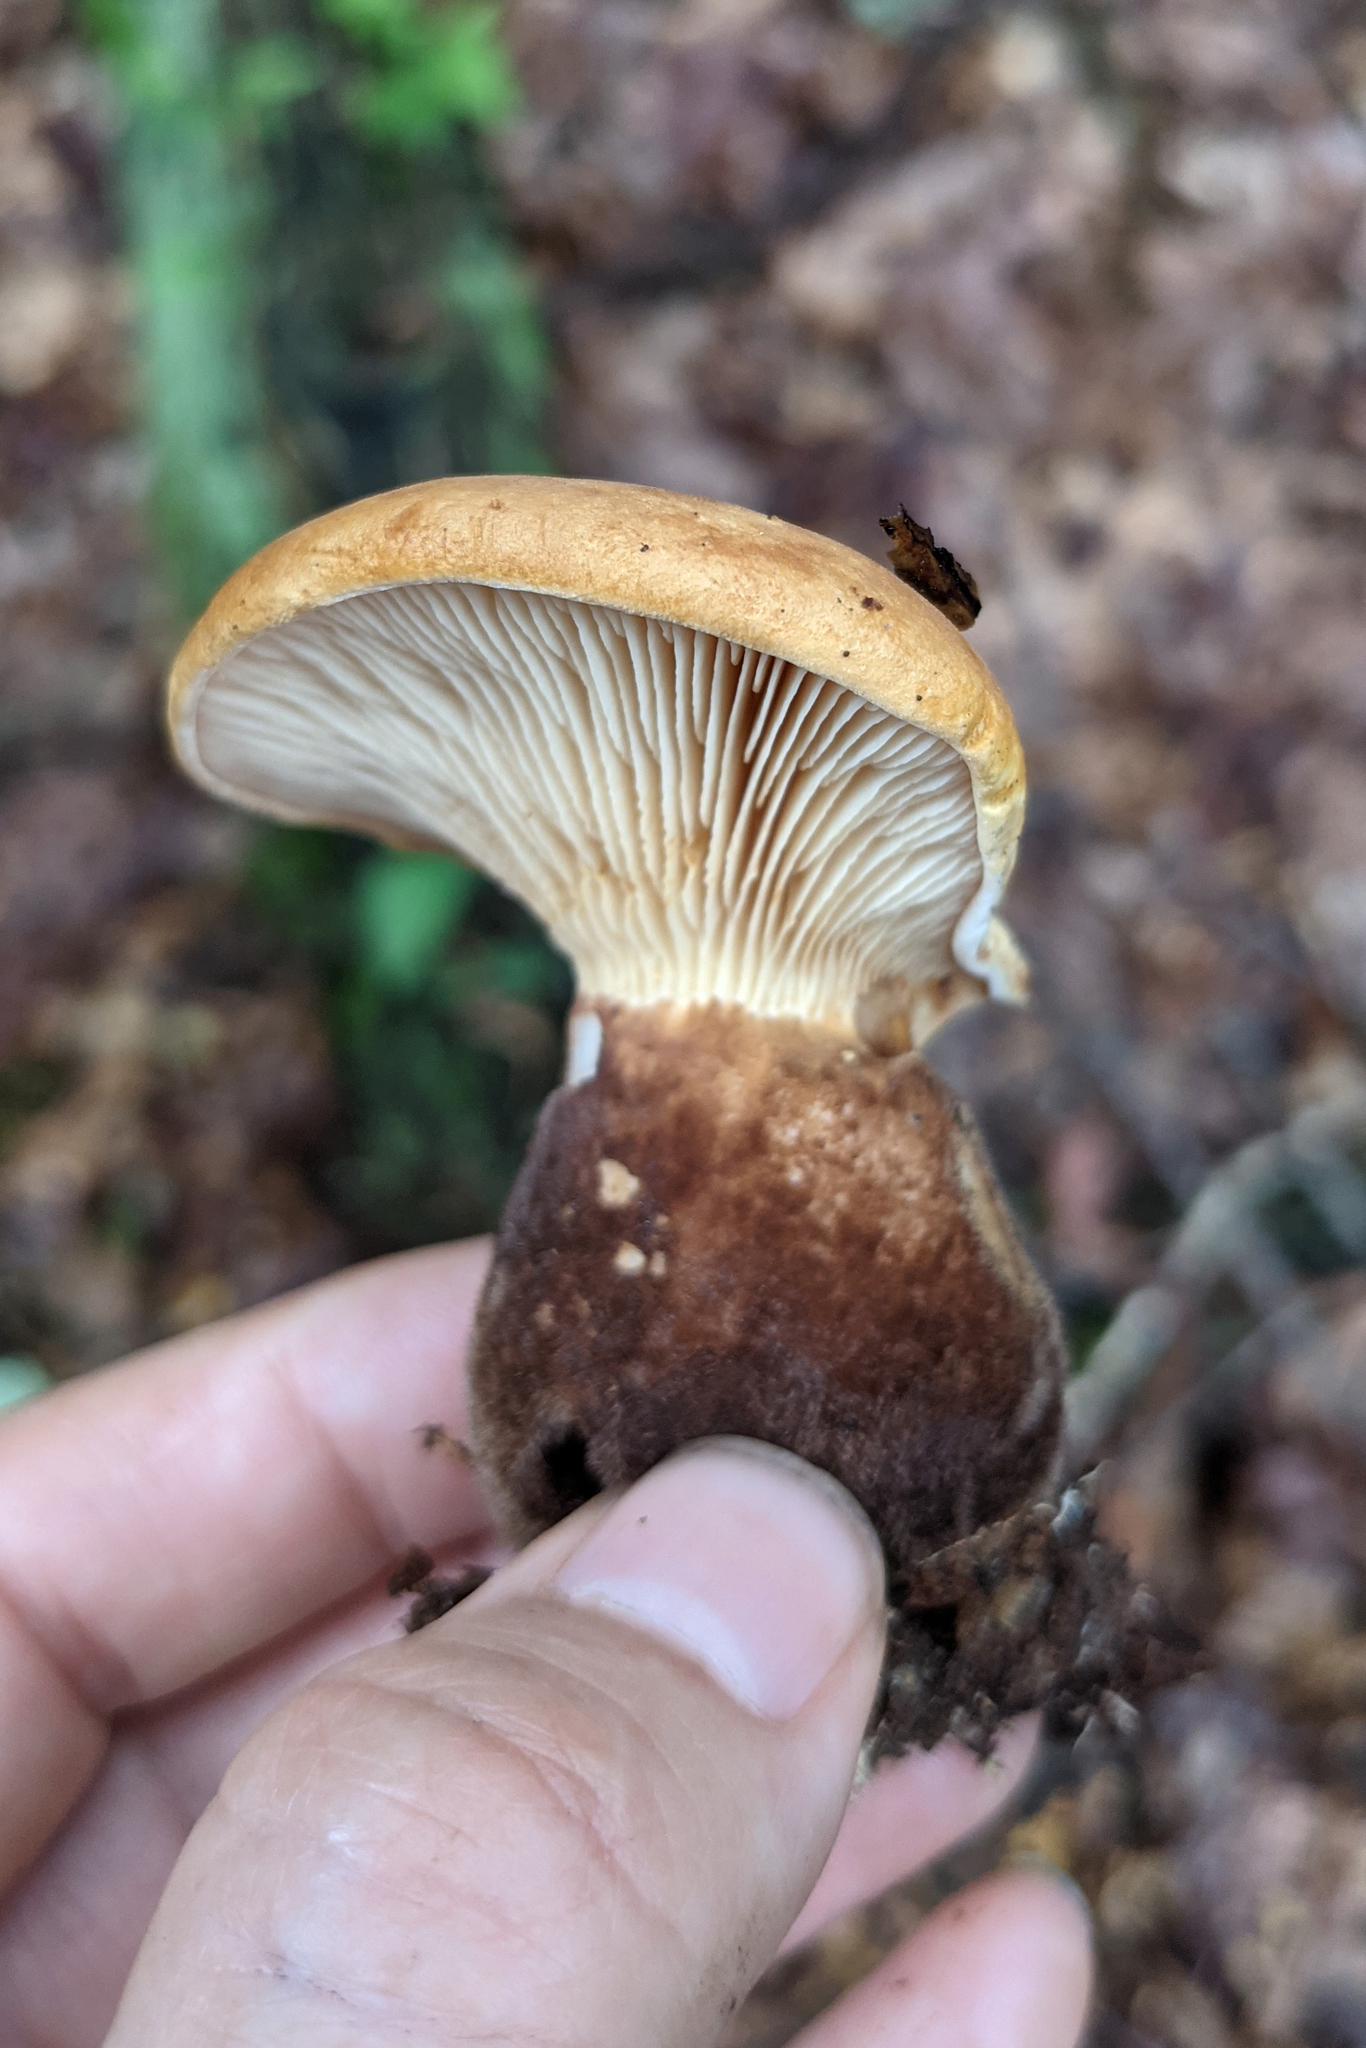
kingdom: Fungi
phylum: Basidiomycota
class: Agaricomycetes
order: Boletales
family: Tapinellaceae
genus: Tapinella
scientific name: Tapinella atrotomentosa
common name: Velvet rollrim
